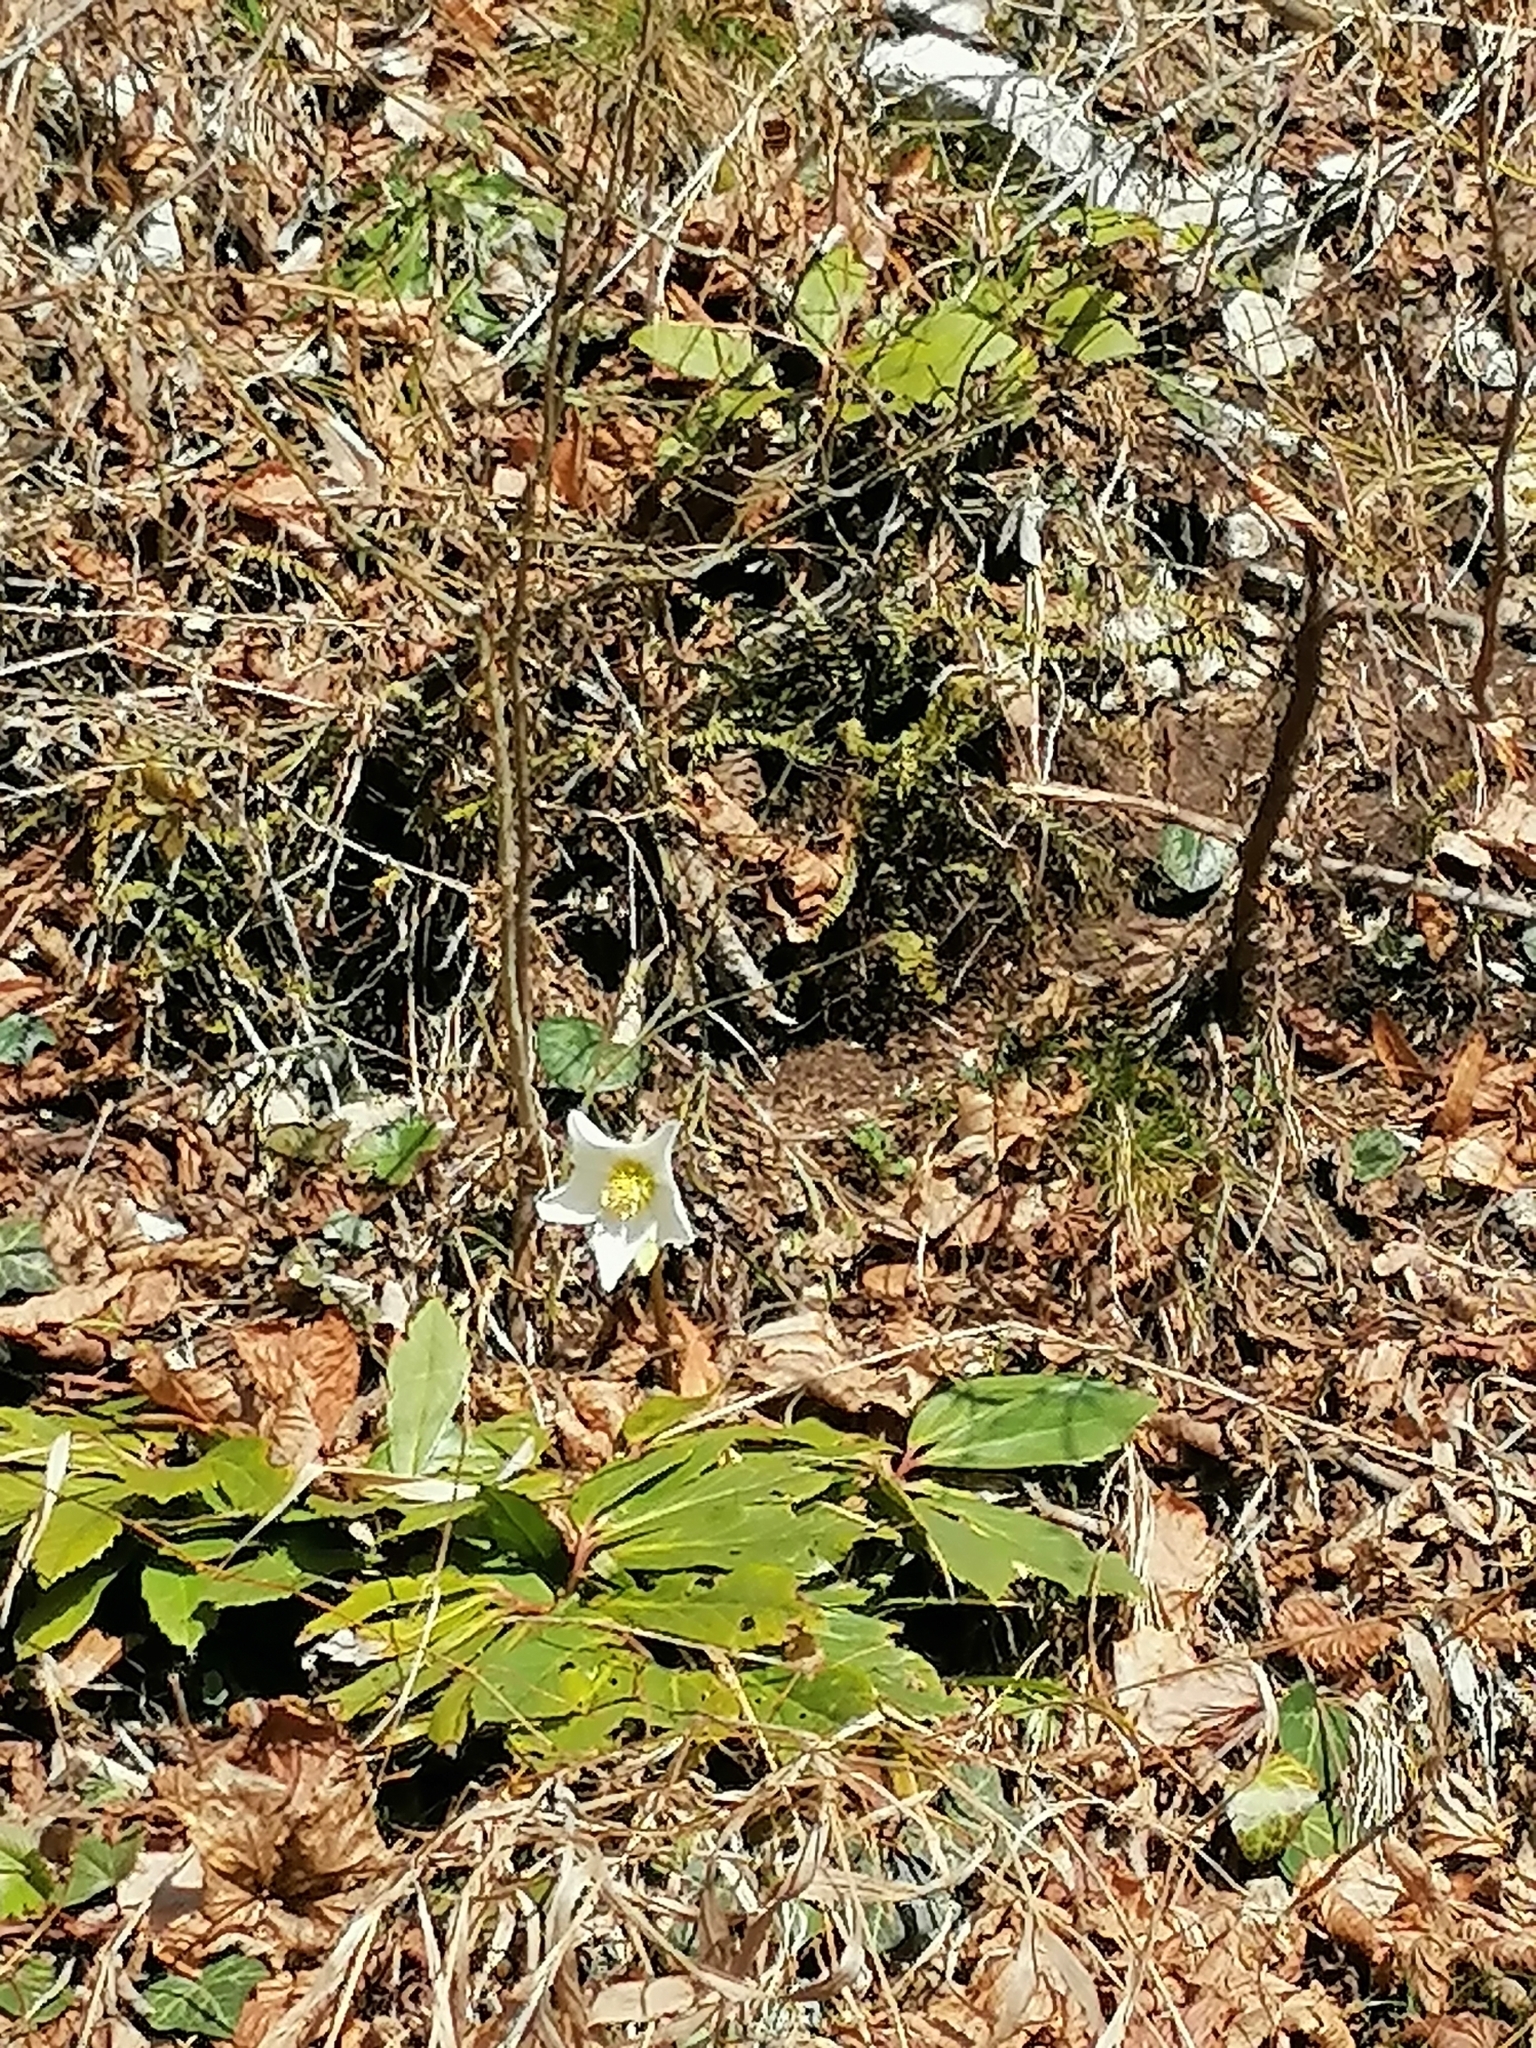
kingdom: Plantae
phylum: Tracheophyta
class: Magnoliopsida
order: Ranunculales
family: Ranunculaceae
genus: Helleborus
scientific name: Helleborus niger
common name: Black hellebore
